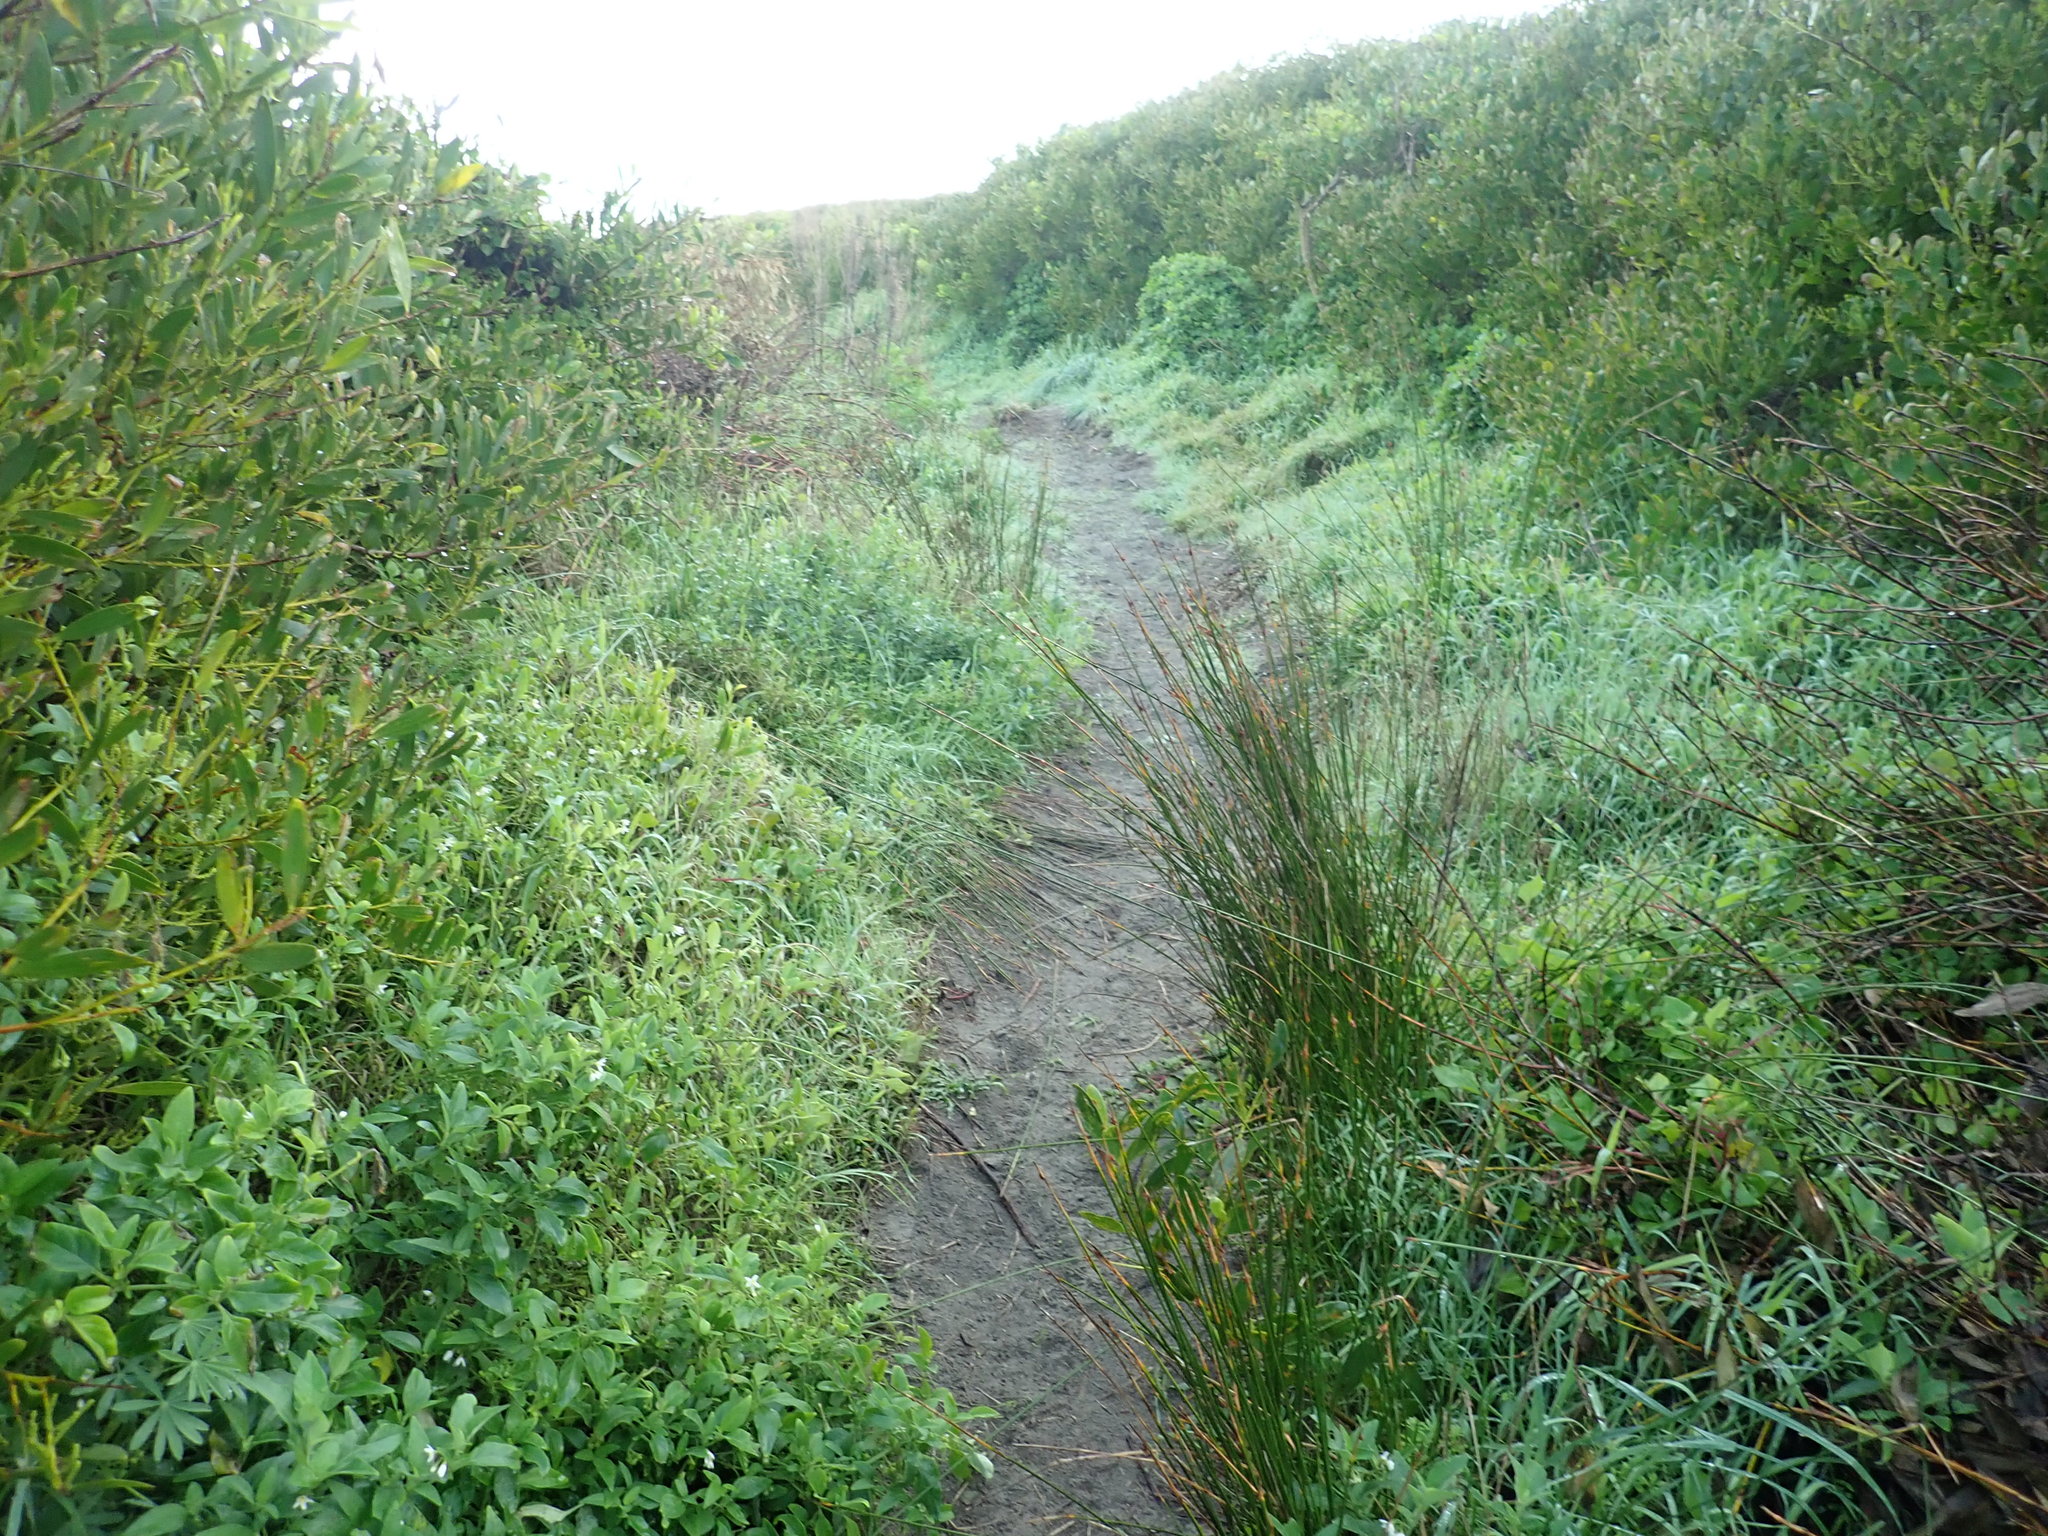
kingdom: Plantae
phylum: Tracheophyta
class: Liliopsida
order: Poales
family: Cyperaceae
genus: Ficinia
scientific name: Ficinia nodosa
